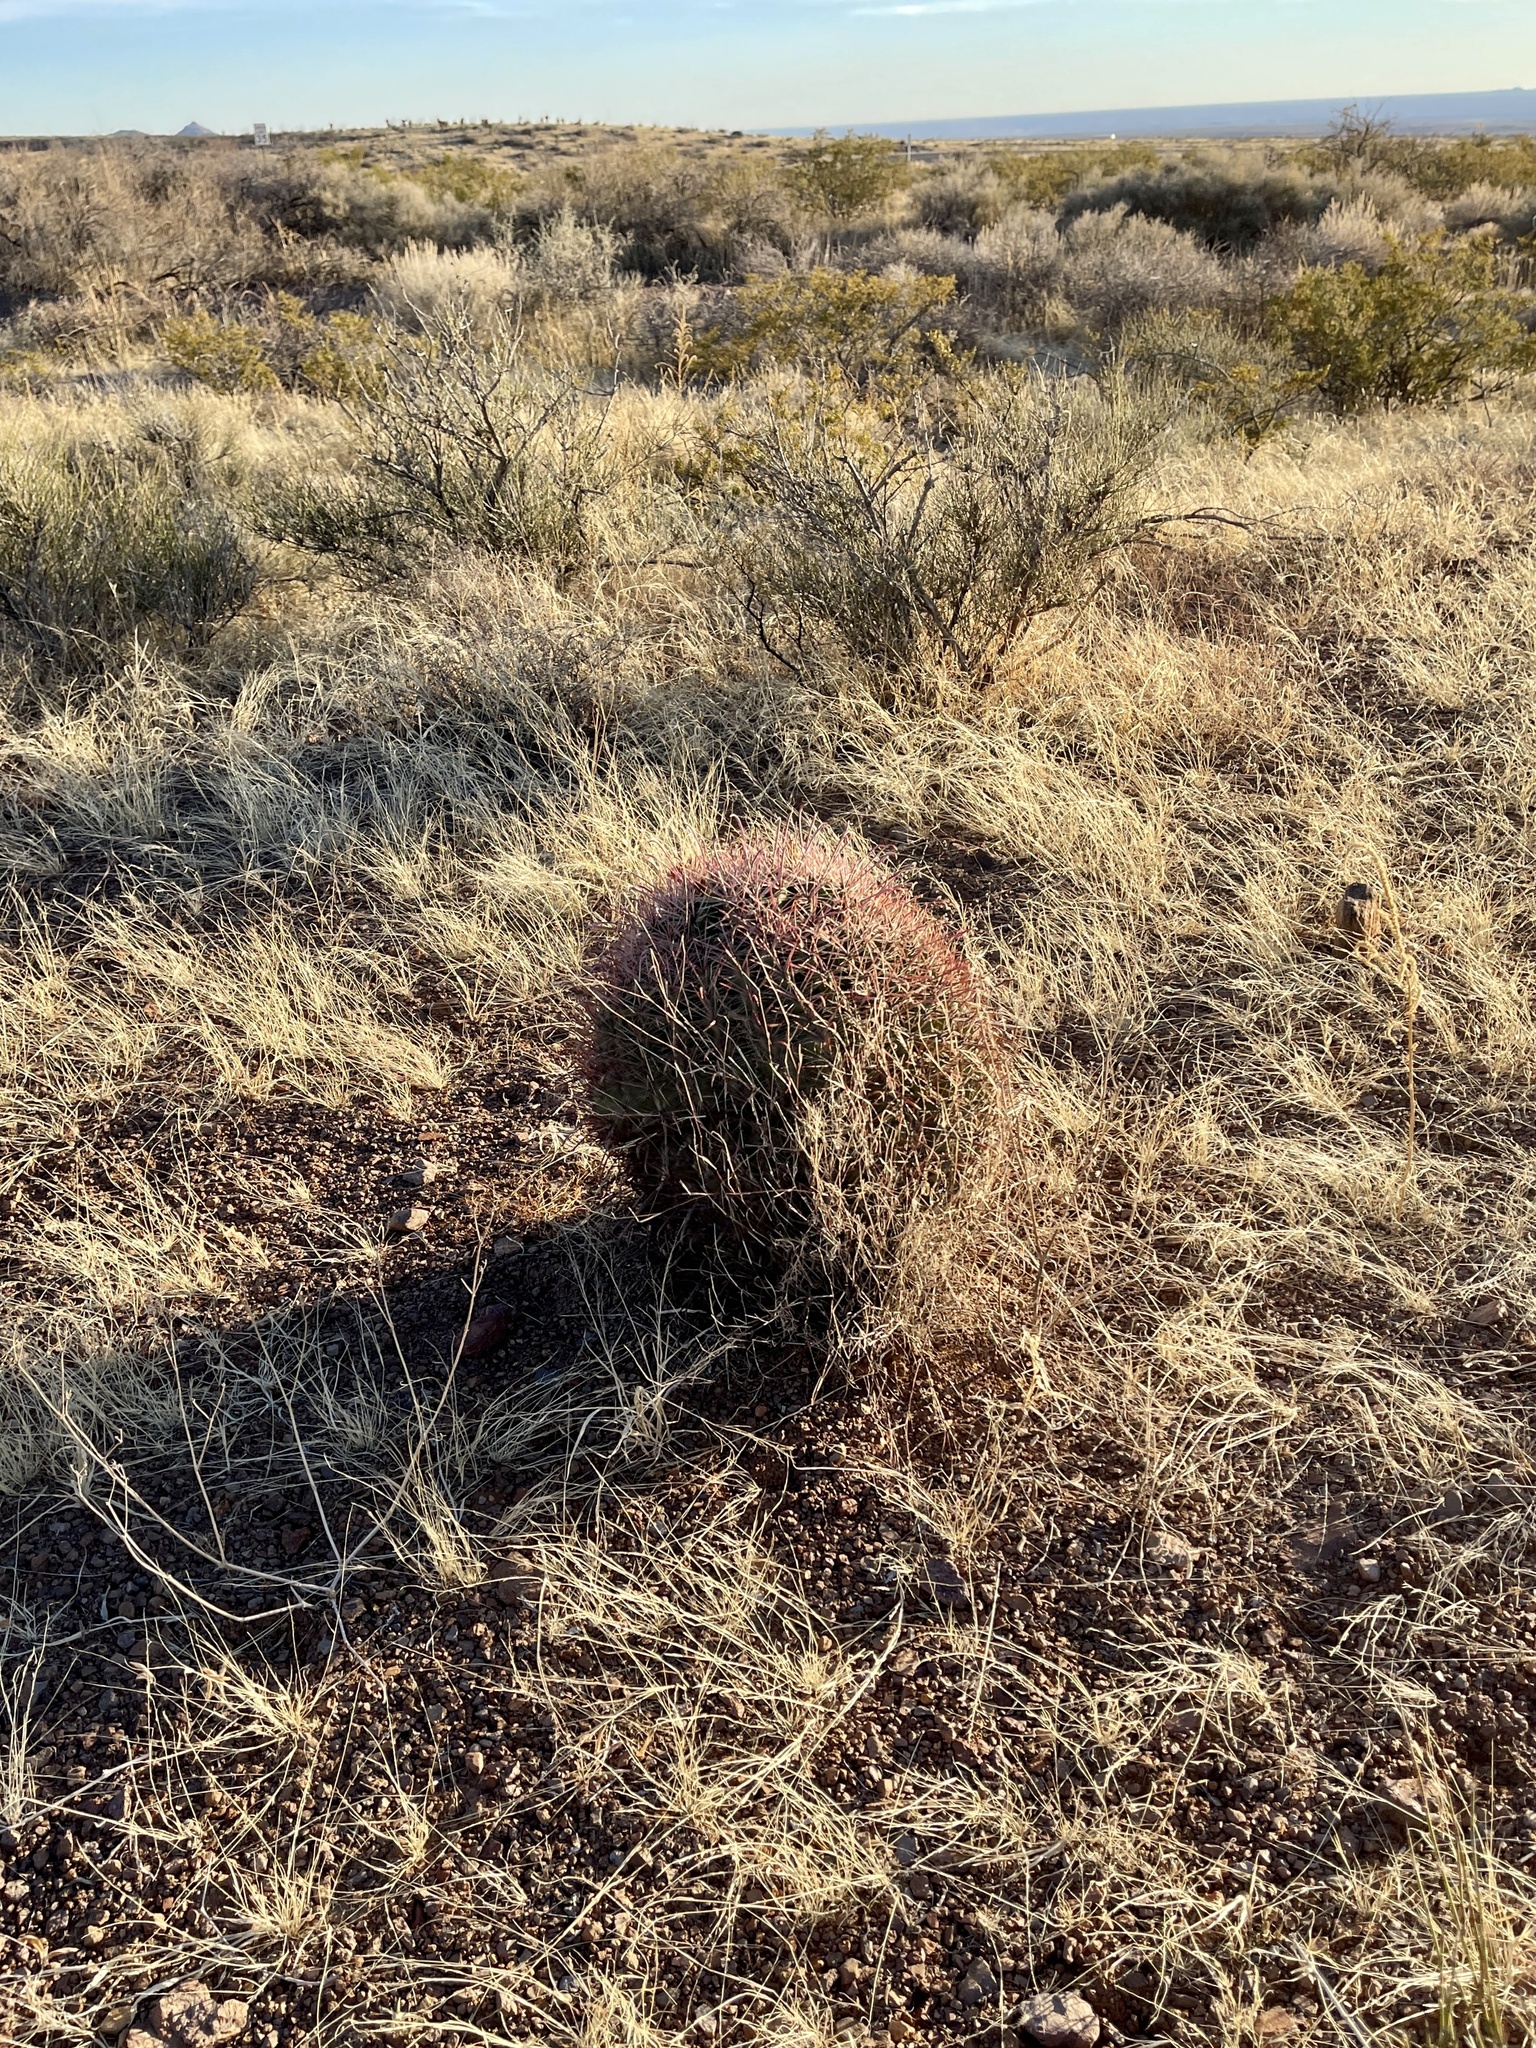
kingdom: Plantae
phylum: Tracheophyta
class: Magnoliopsida
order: Caryophyllales
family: Cactaceae
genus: Ferocactus
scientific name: Ferocactus wislizeni
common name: Candy barrel cactus
